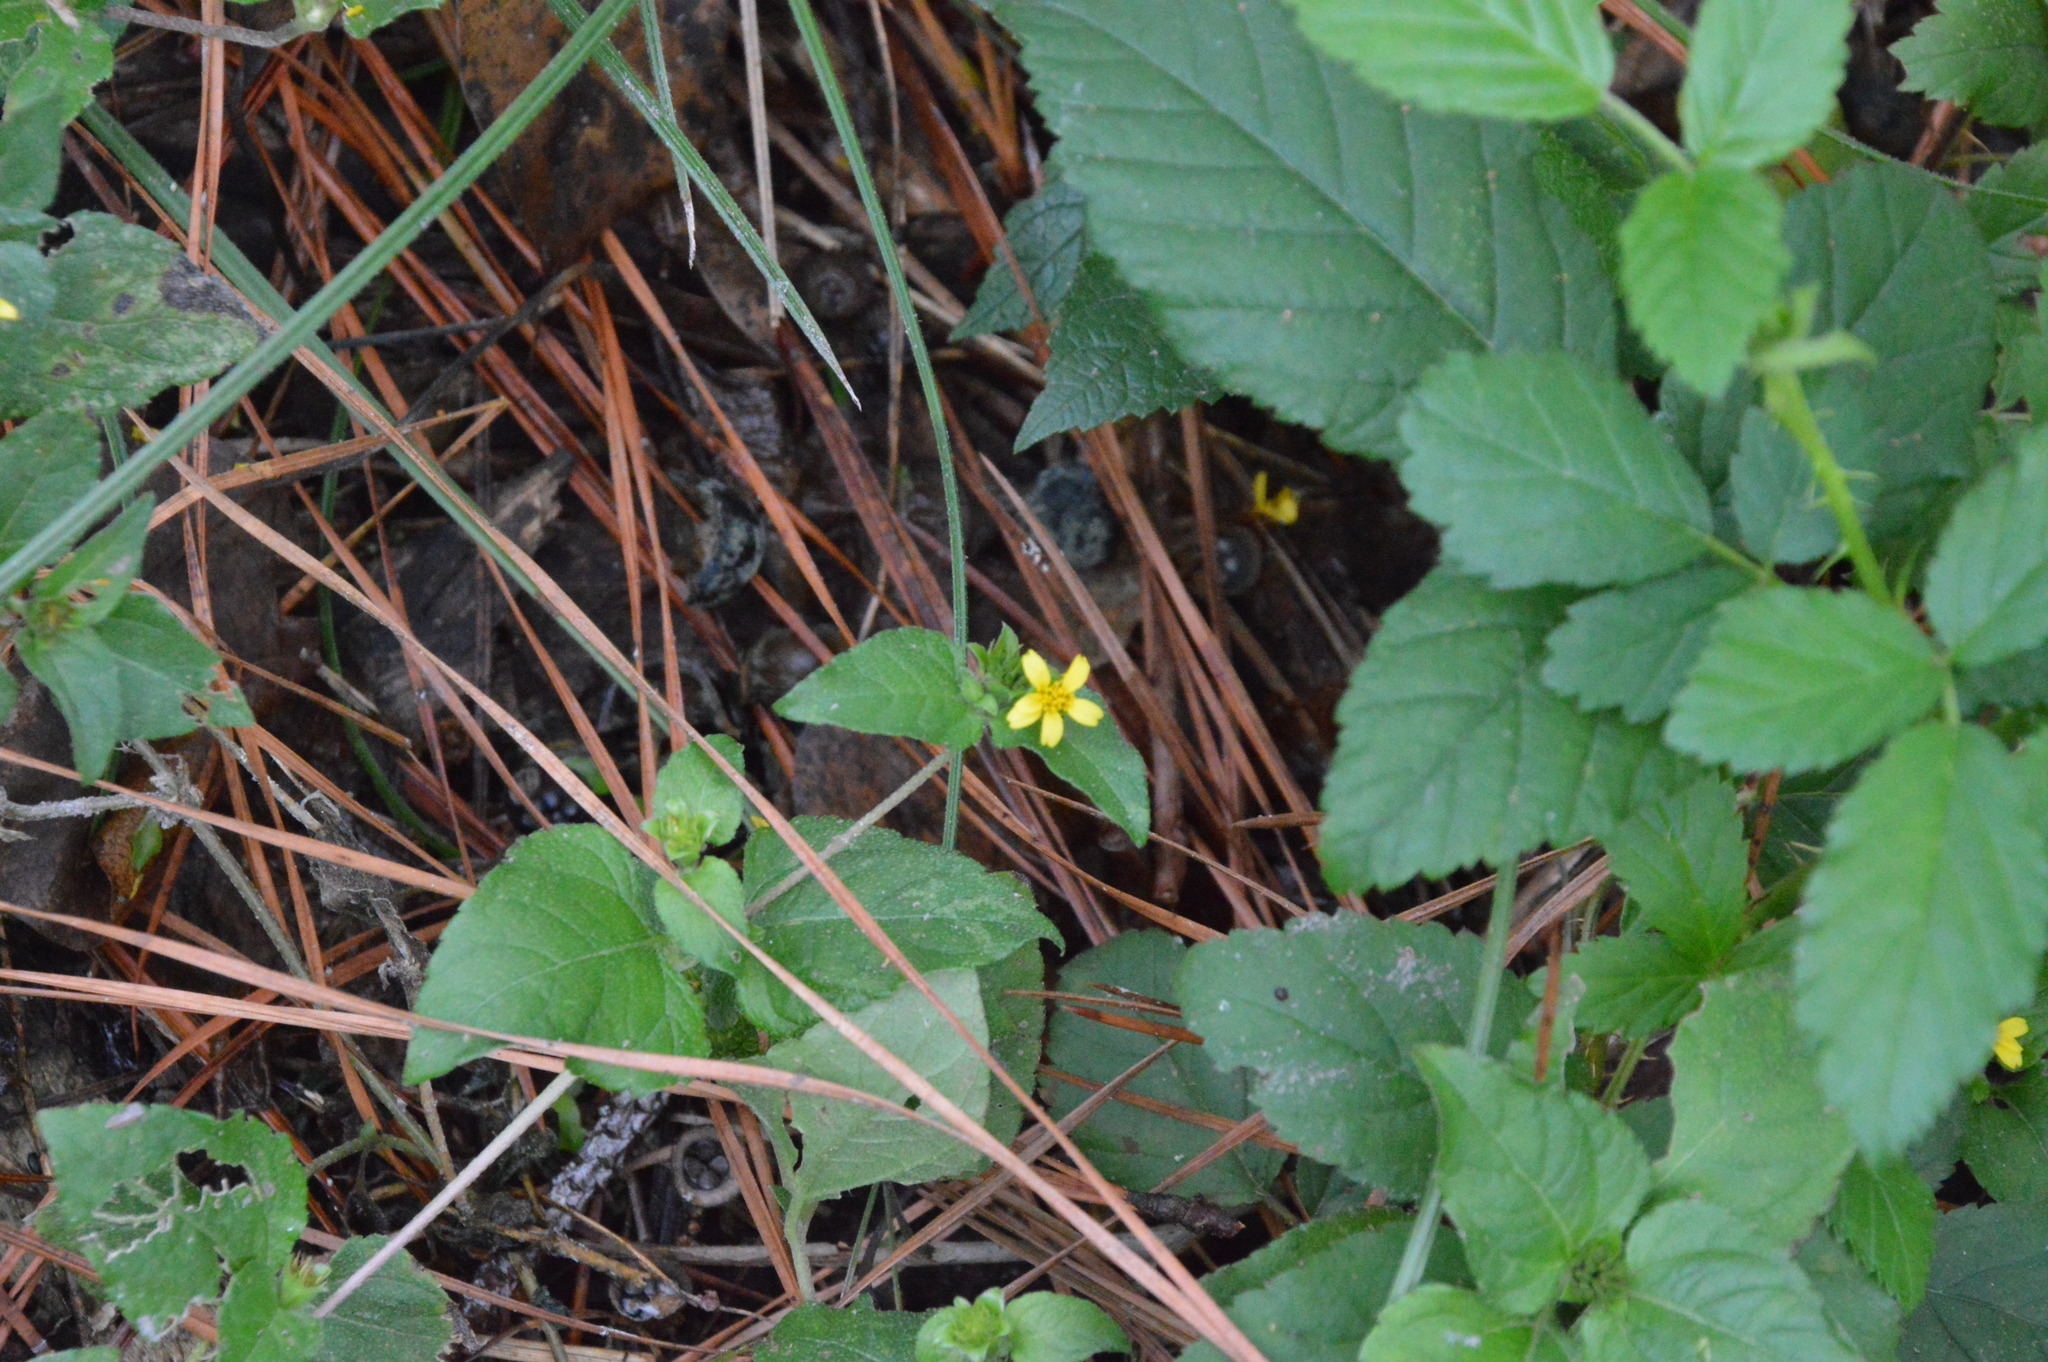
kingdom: Plantae
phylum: Tracheophyta
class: Magnoliopsida
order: Asterales
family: Asteraceae
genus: Calyptocarpus
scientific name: Calyptocarpus vialis
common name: Straggler daisy
